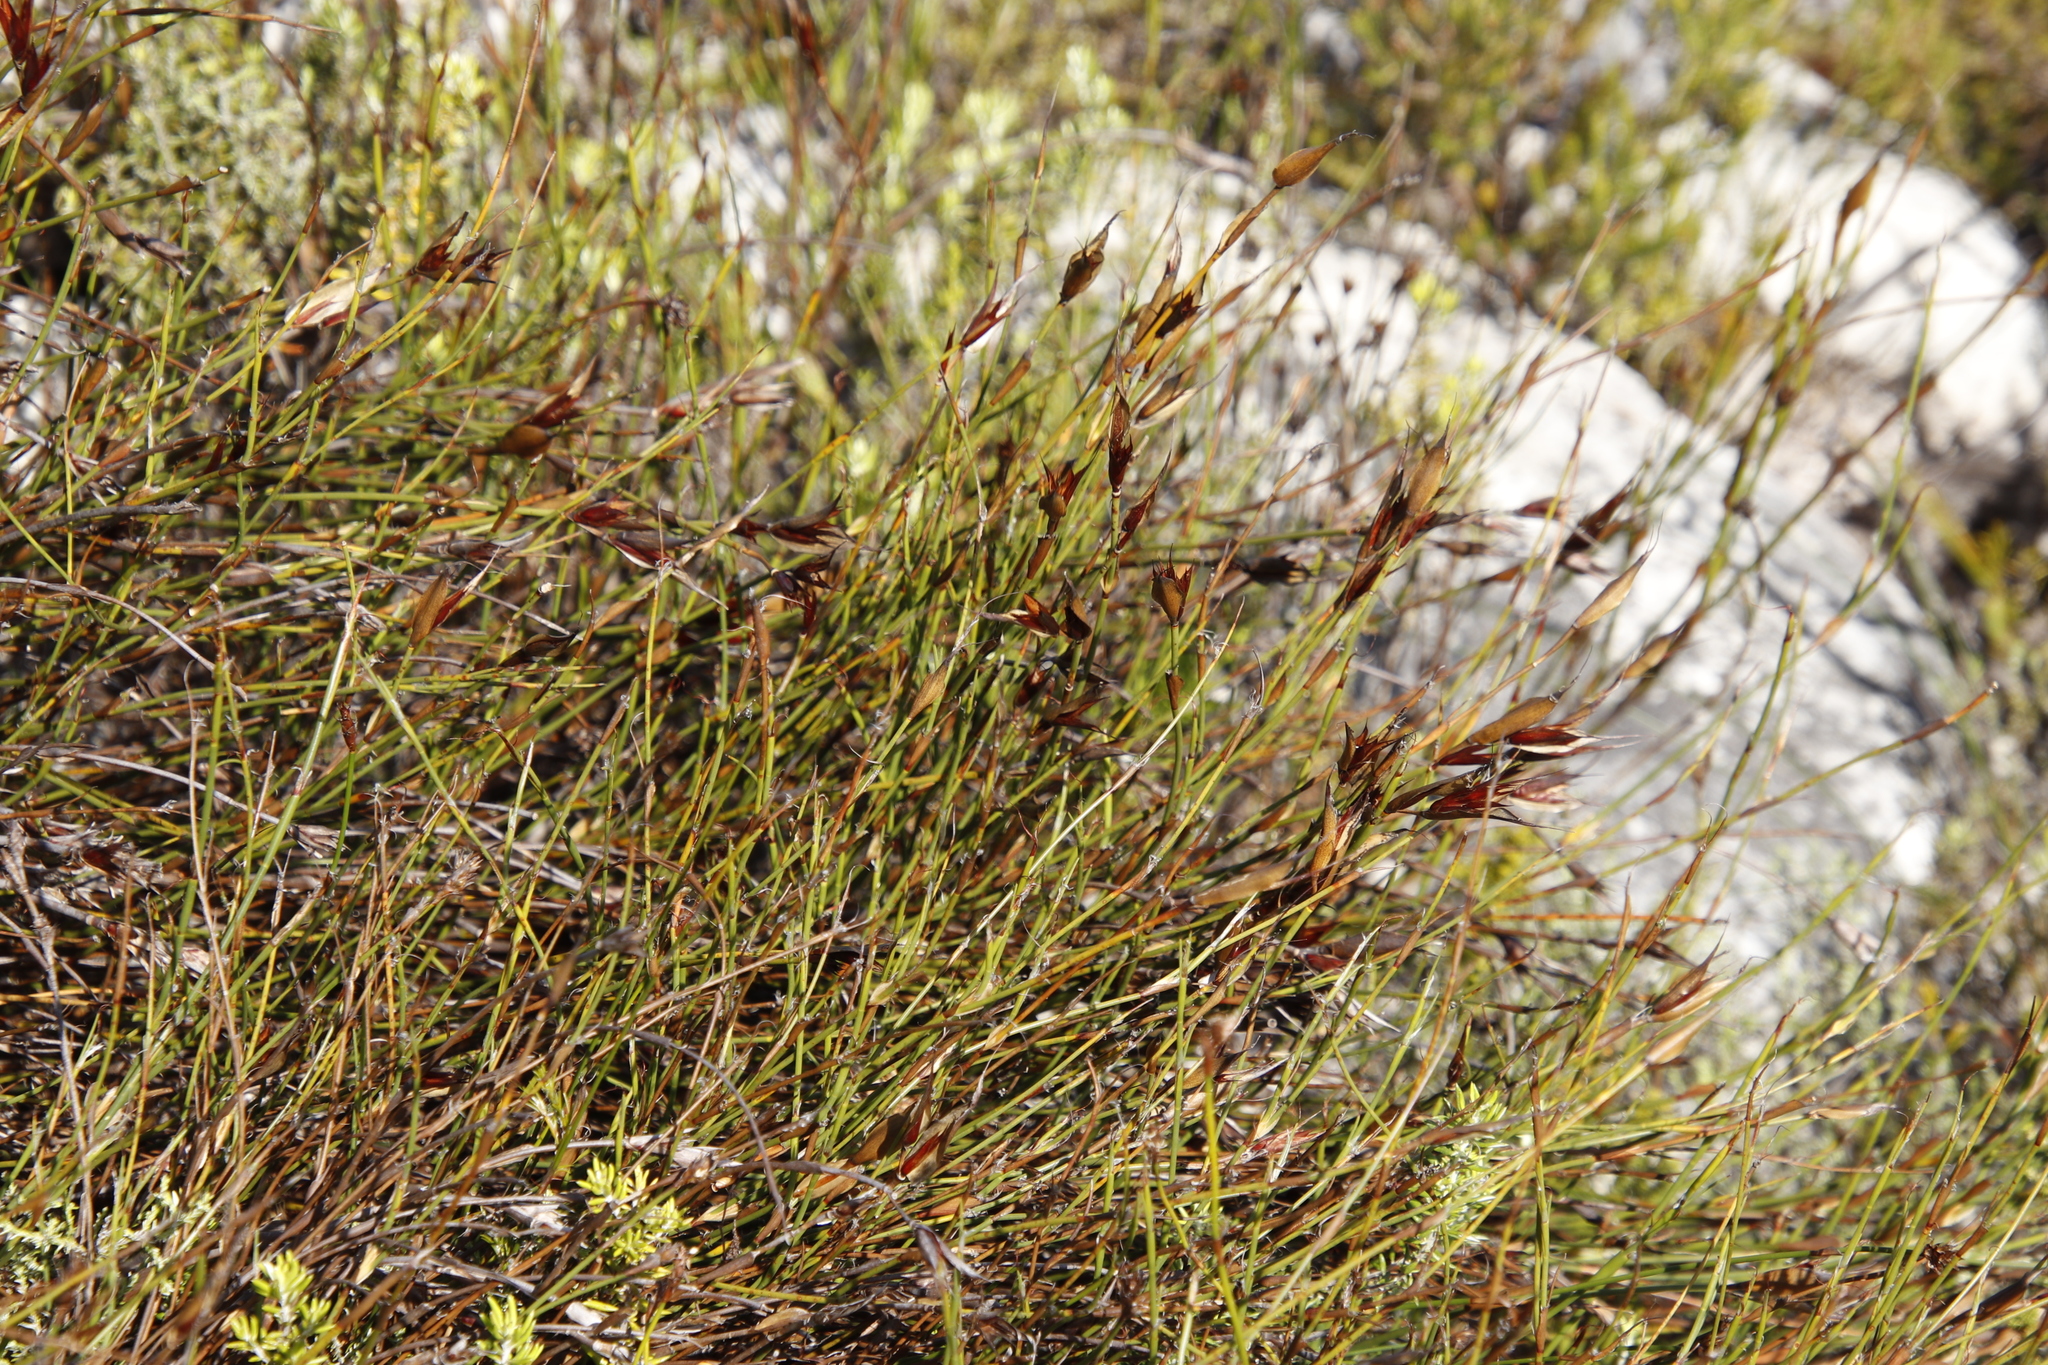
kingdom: Plantae
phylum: Tracheophyta
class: Liliopsida
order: Poales
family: Restionaceae
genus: Willdenowia
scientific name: Willdenowia glomerata
